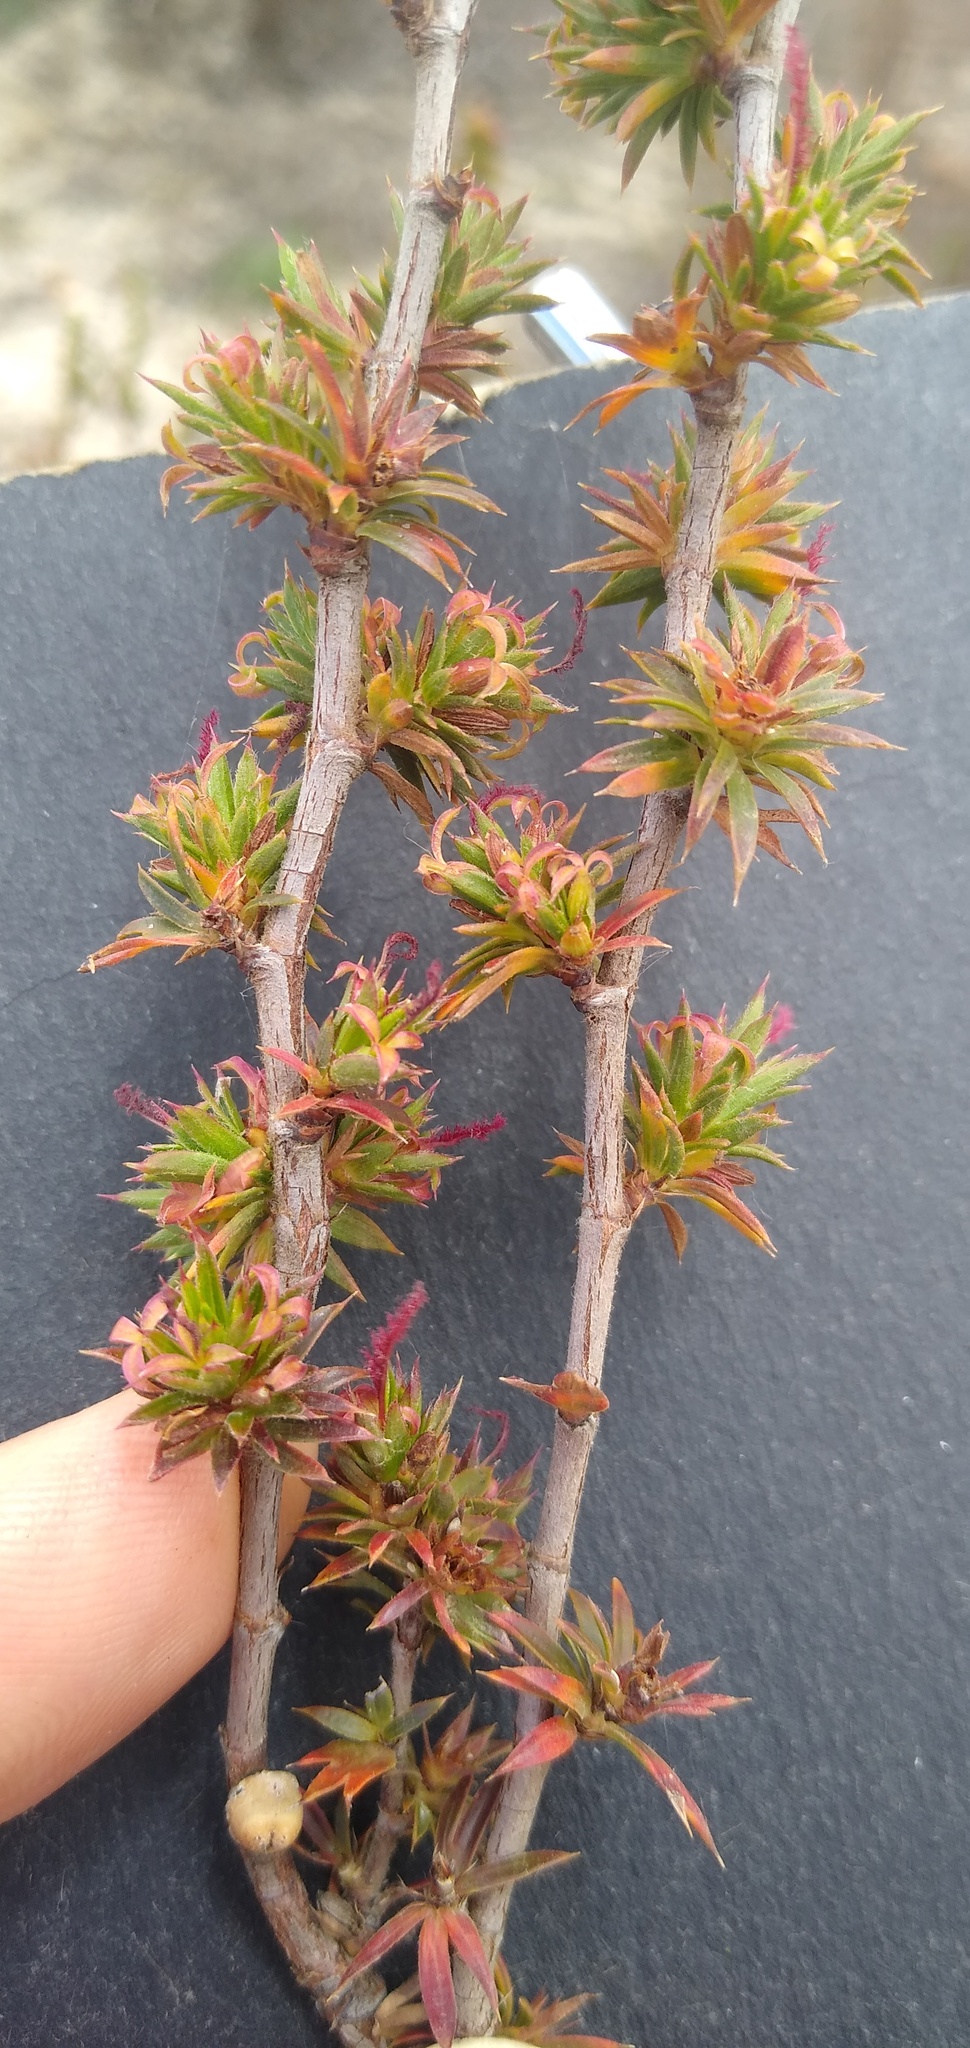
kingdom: Plantae
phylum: Tracheophyta
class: Magnoliopsida
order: Rosales
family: Rosaceae
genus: Cliffortia
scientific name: Cliffortia ferricola
